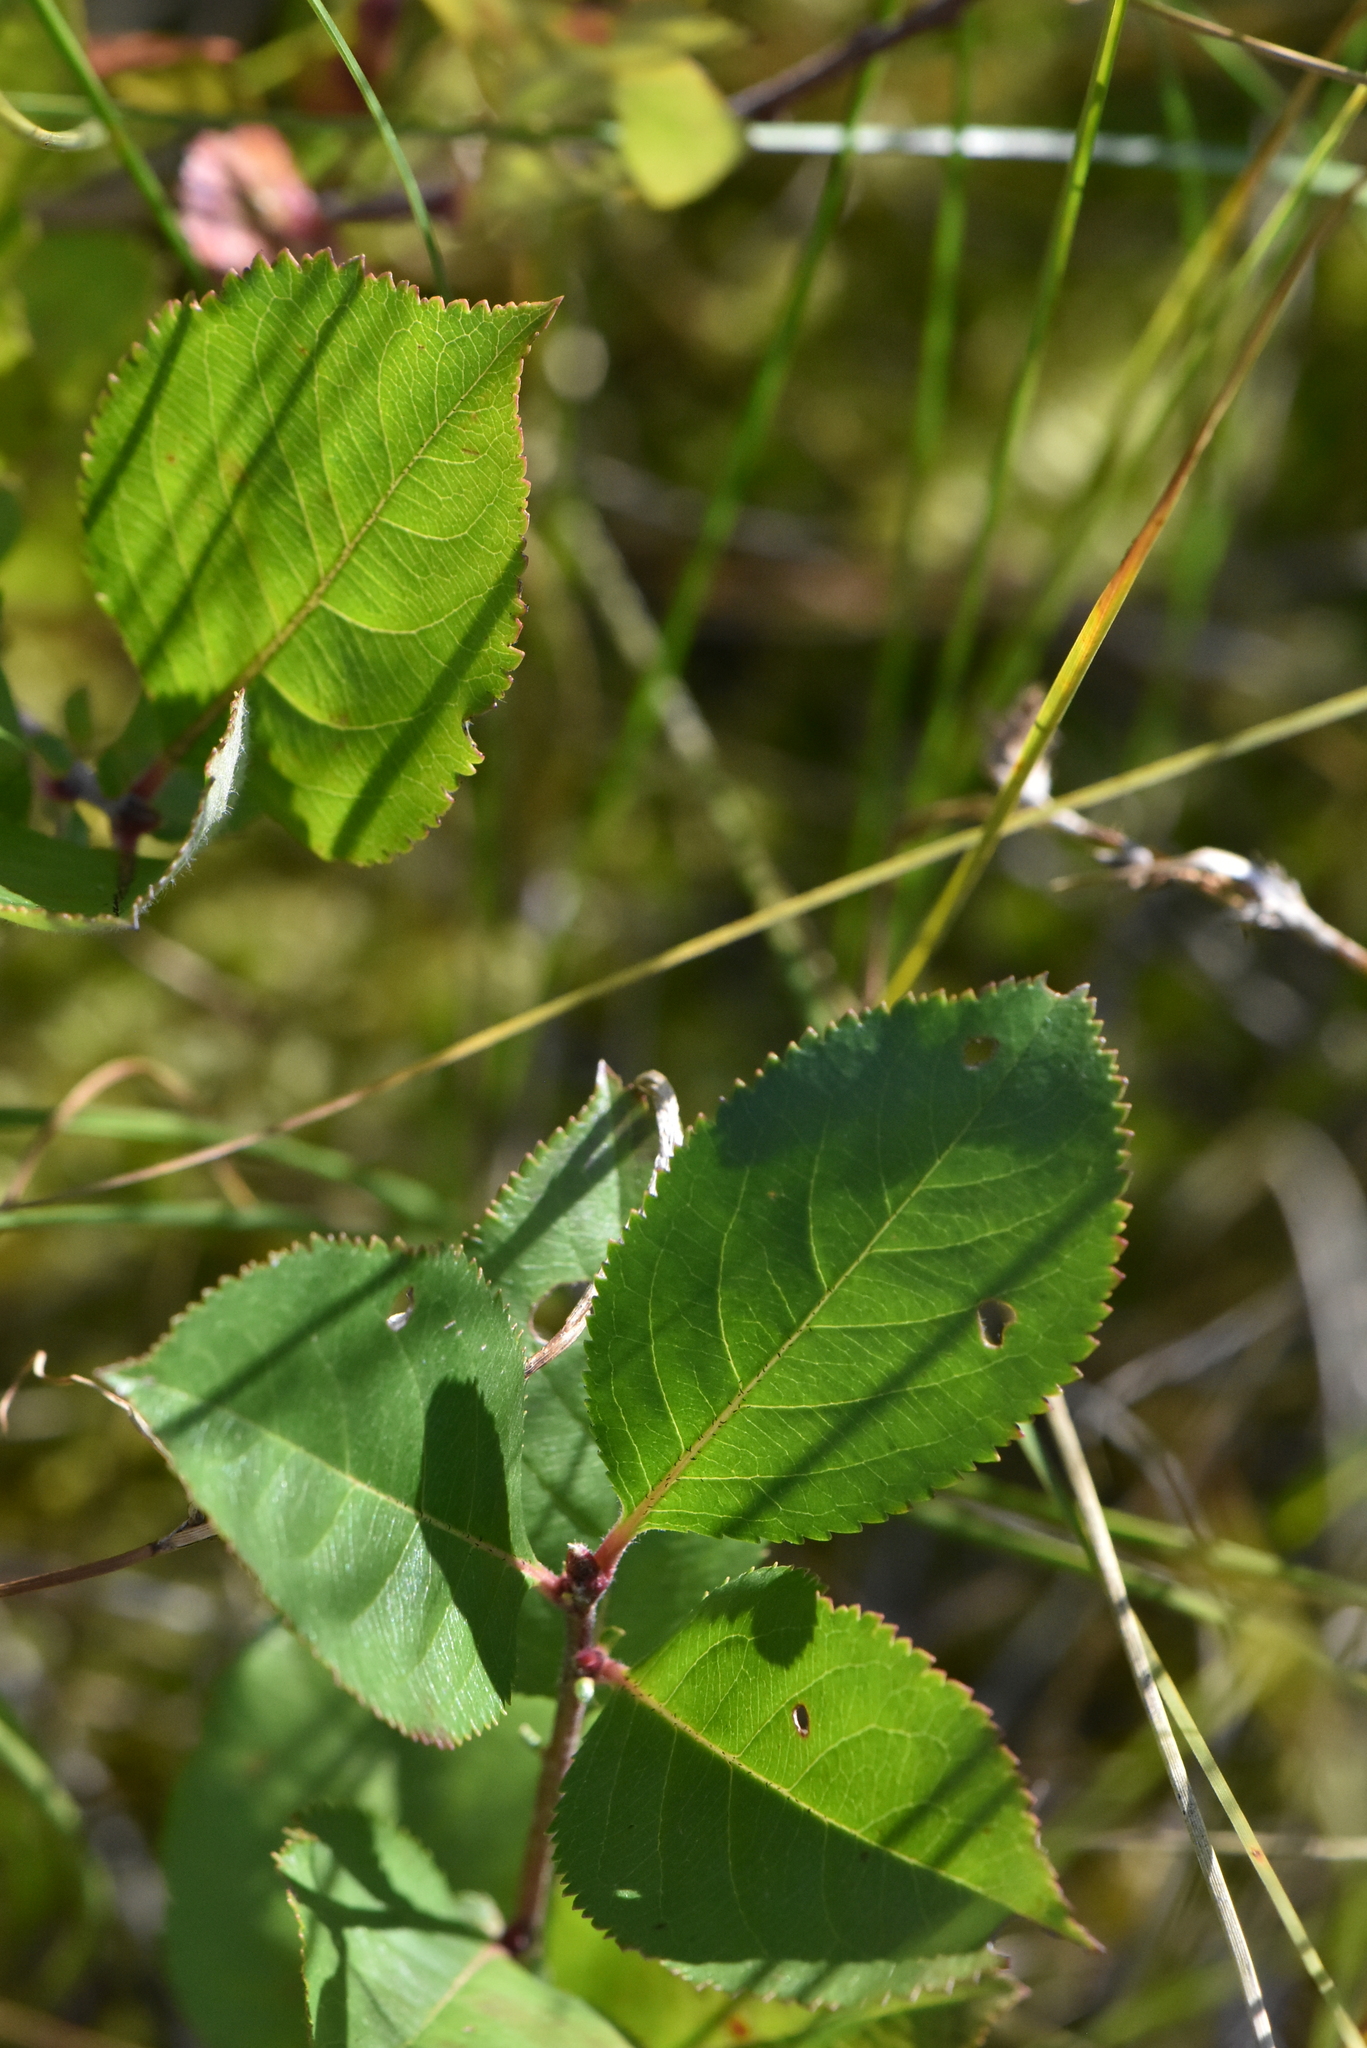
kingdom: Plantae
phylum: Tracheophyta
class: Magnoliopsida
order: Rosales
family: Rosaceae
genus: Sorbaronia
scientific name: Sorbaronia arsenii
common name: Arsène's mountain-ash
